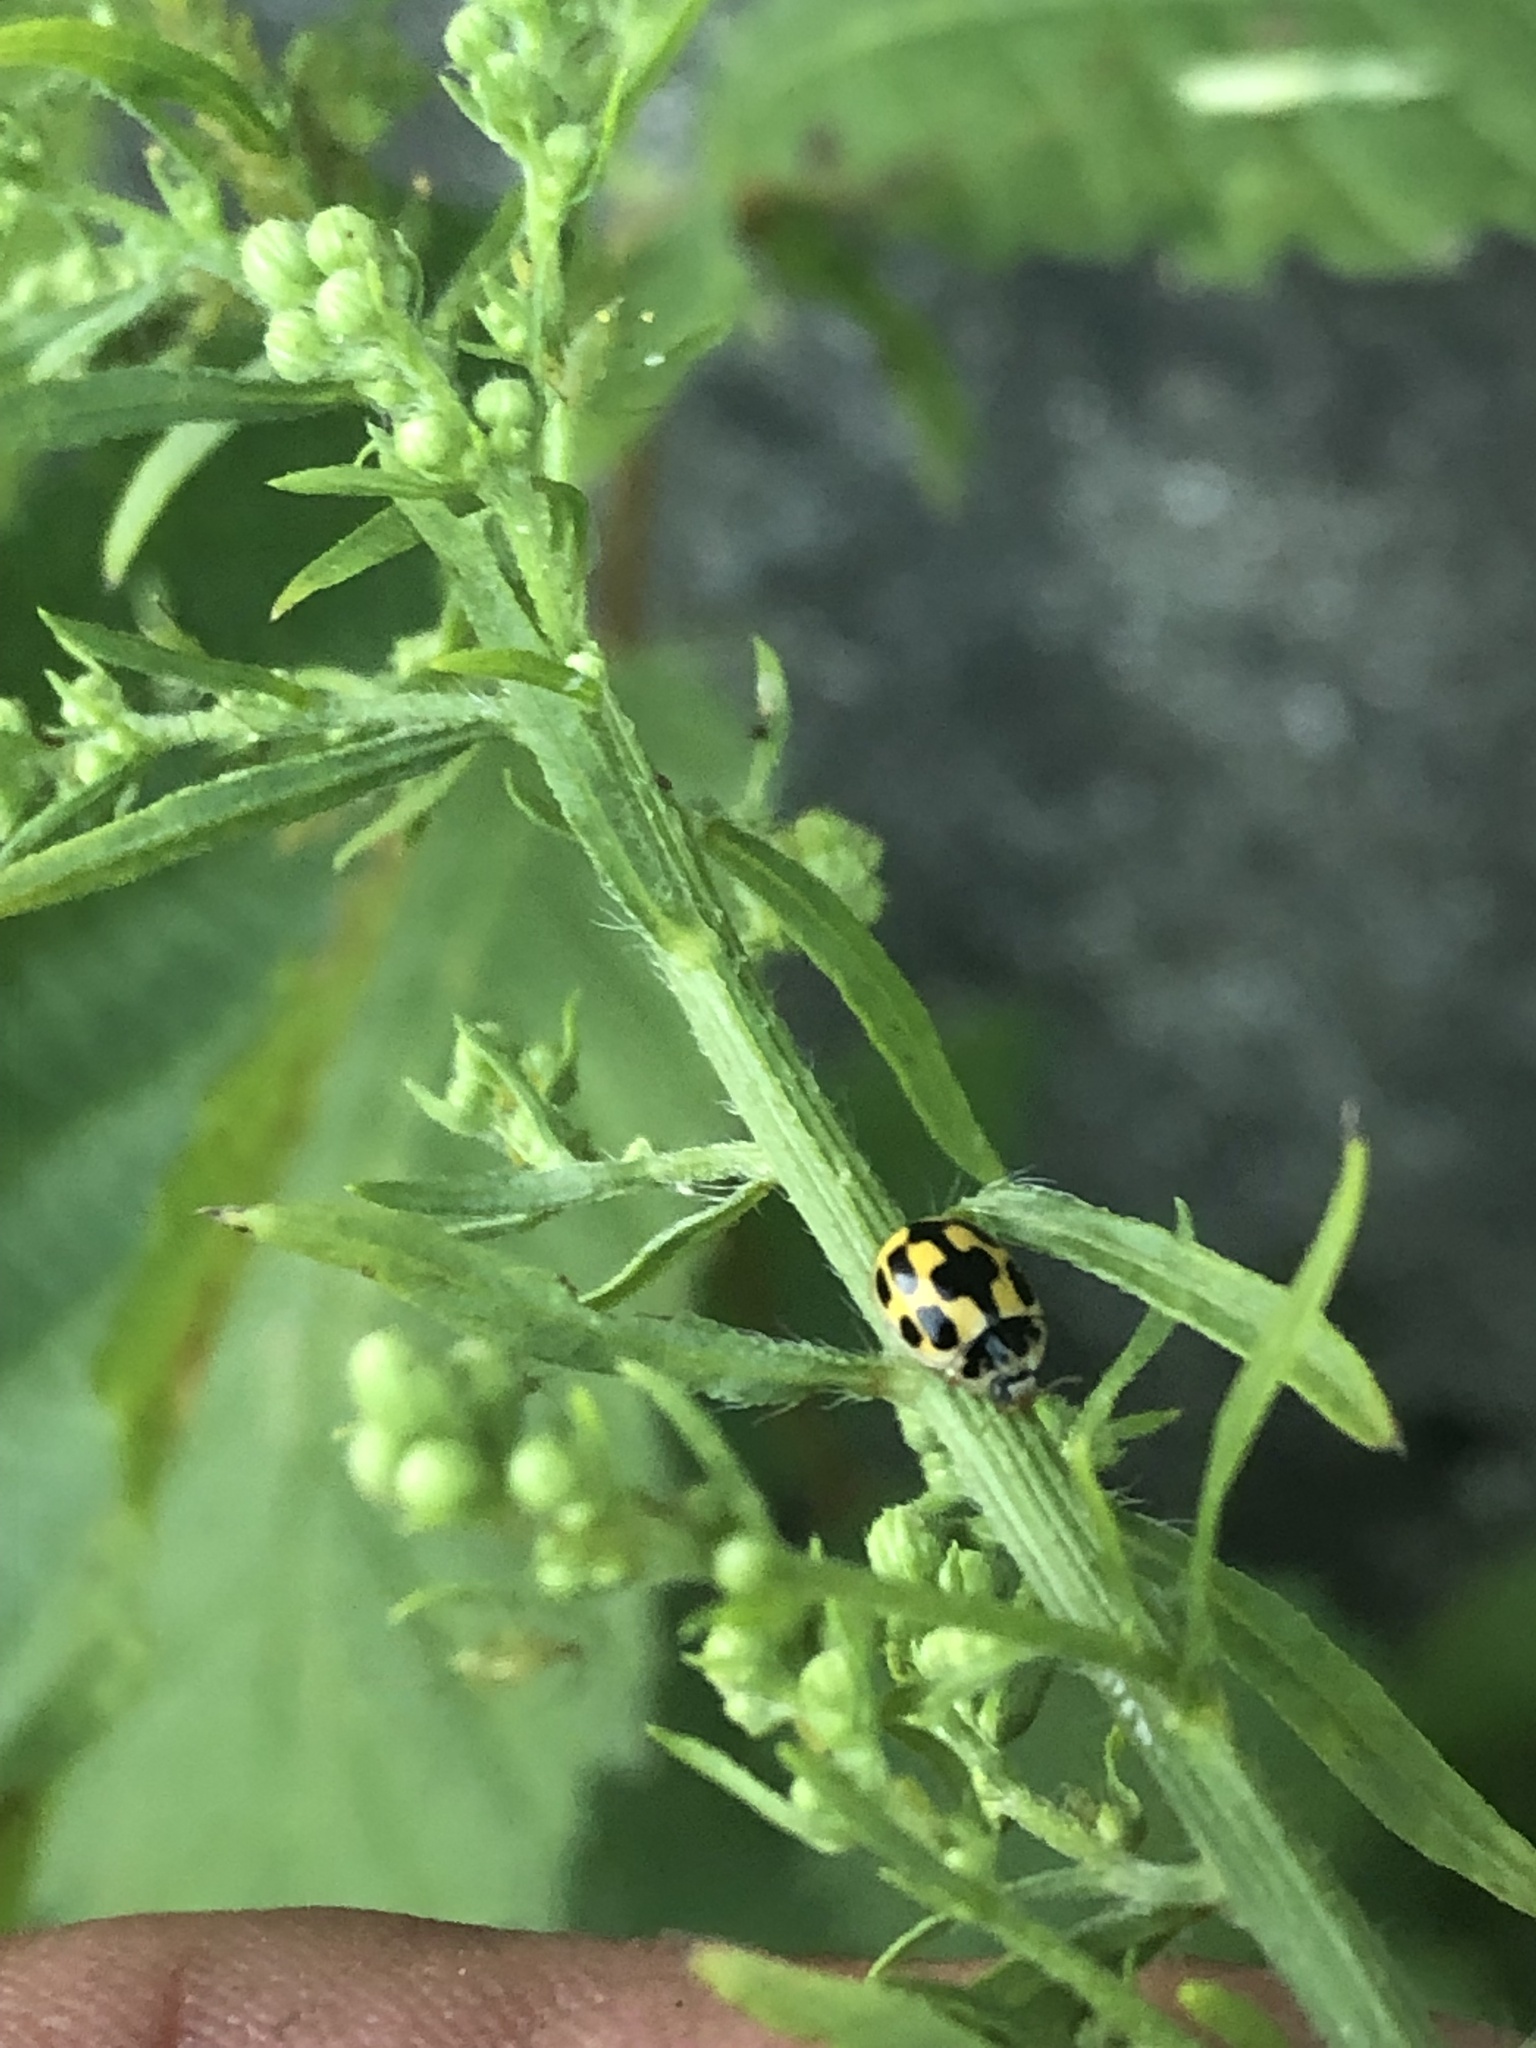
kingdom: Animalia
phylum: Arthropoda
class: Insecta
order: Coleoptera
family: Coccinellidae
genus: Propylaea
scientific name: Propylaea quatuordecimpunctata
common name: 14-spotted ladybird beetle
